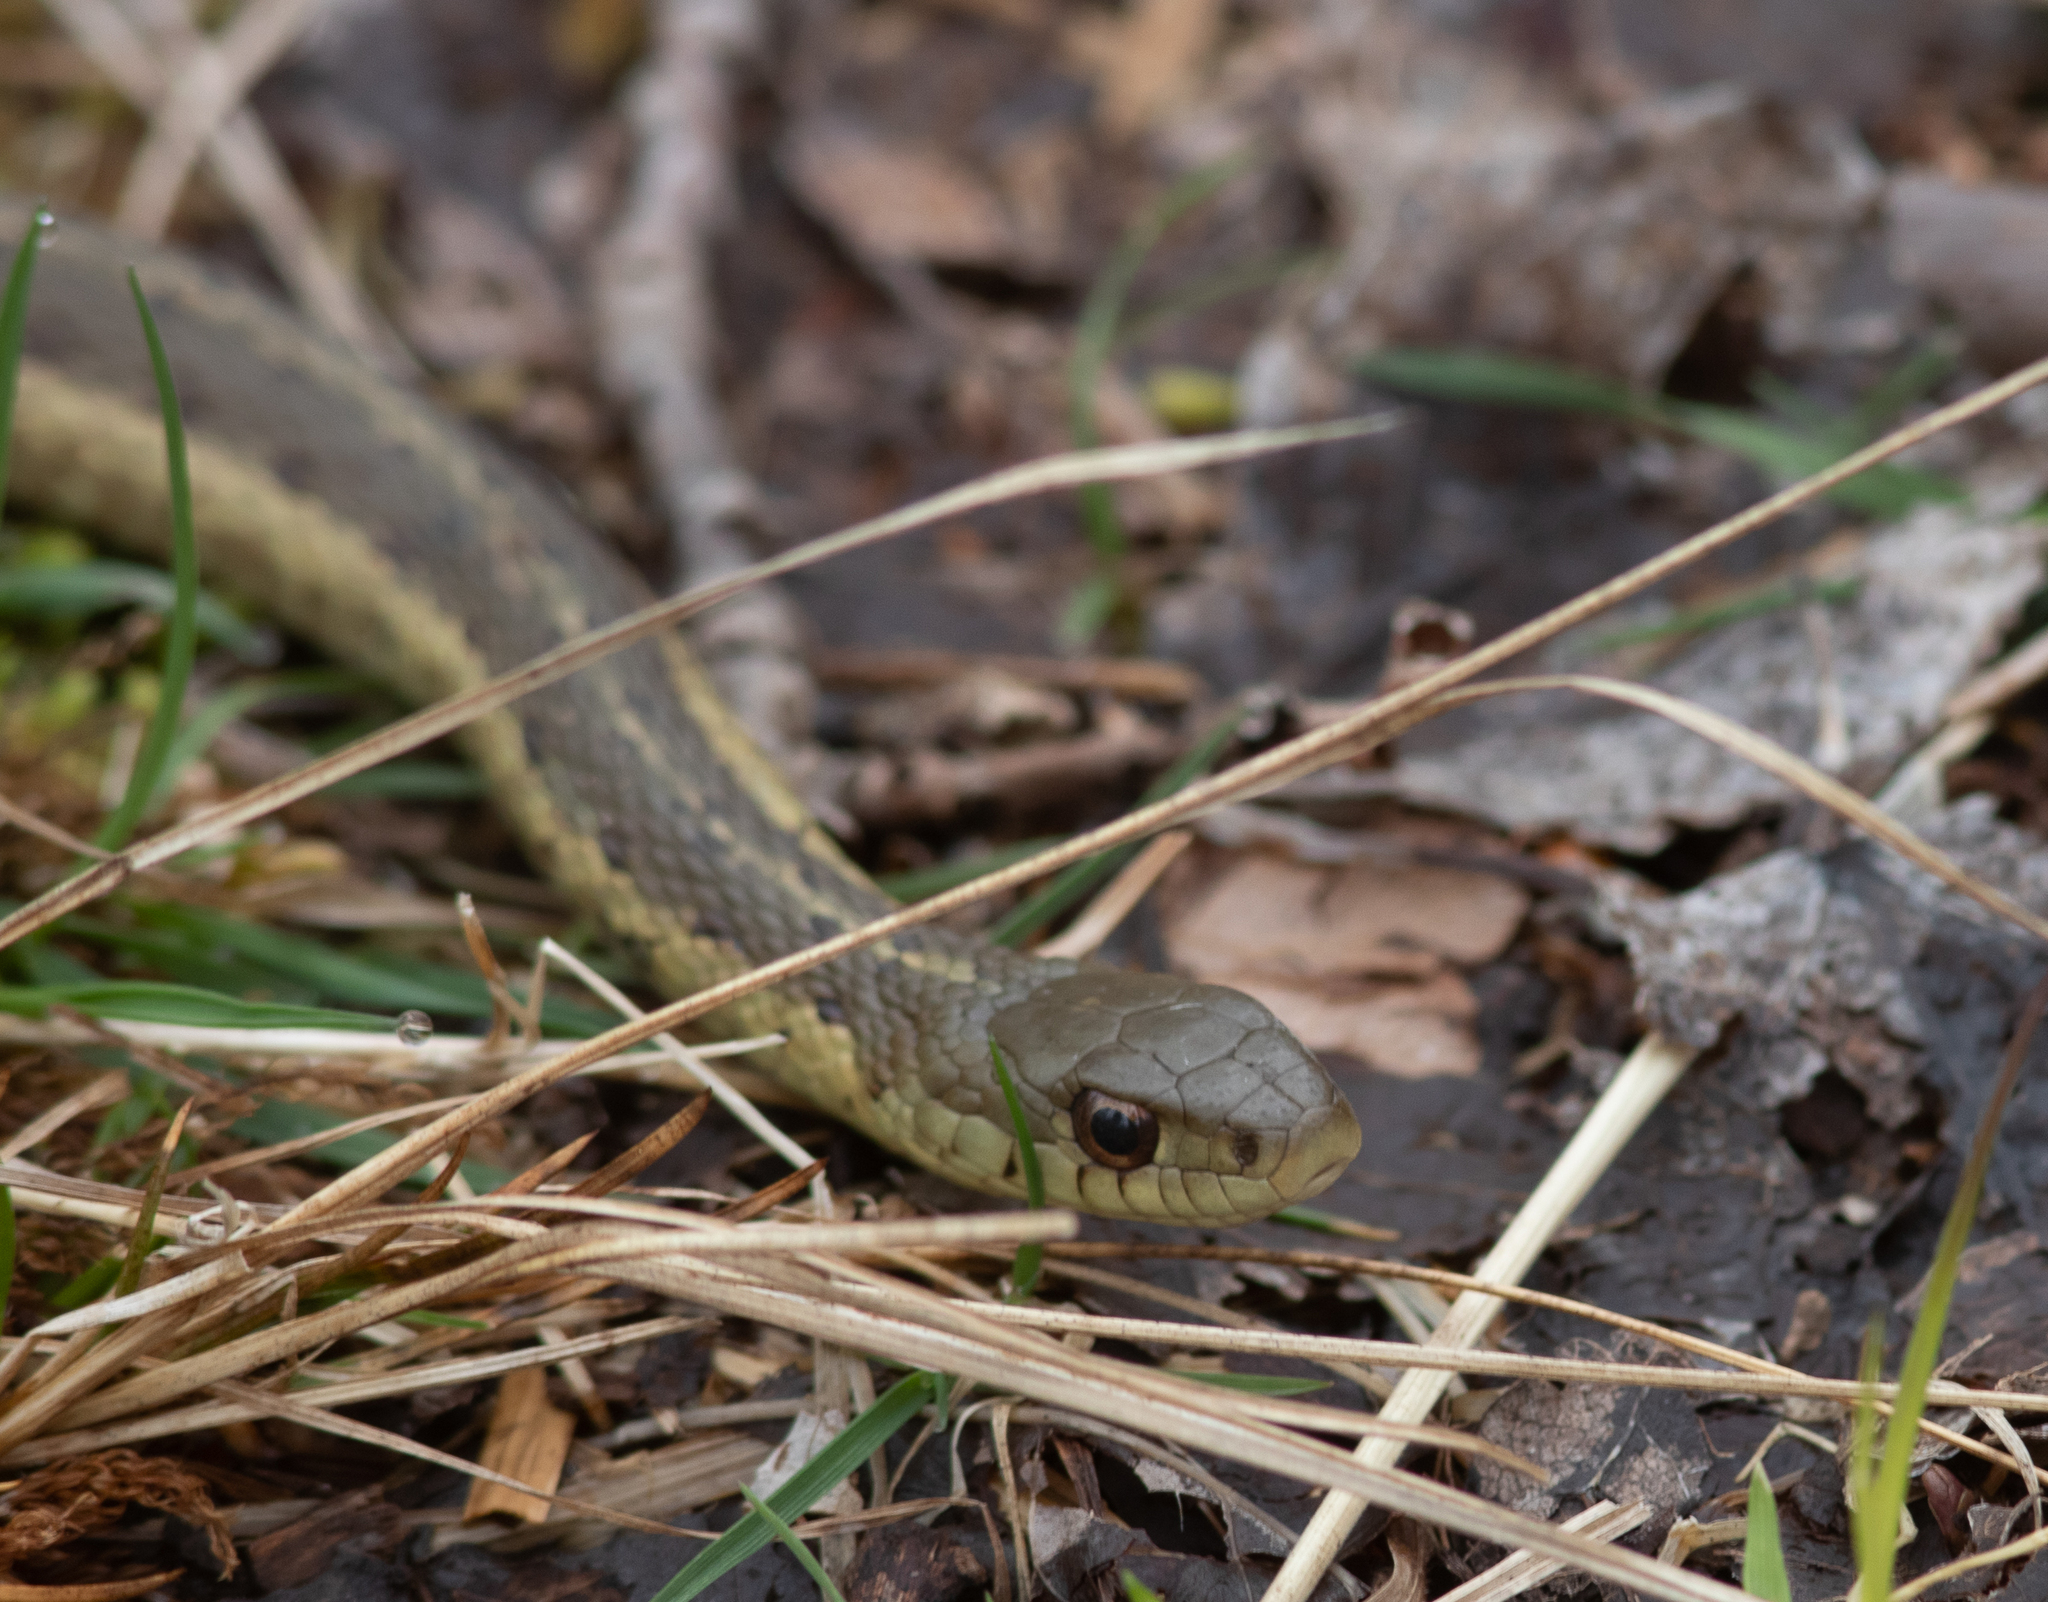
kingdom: Animalia
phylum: Chordata
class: Squamata
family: Colubridae
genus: Thamnophis
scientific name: Thamnophis sirtalis
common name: Common garter snake
